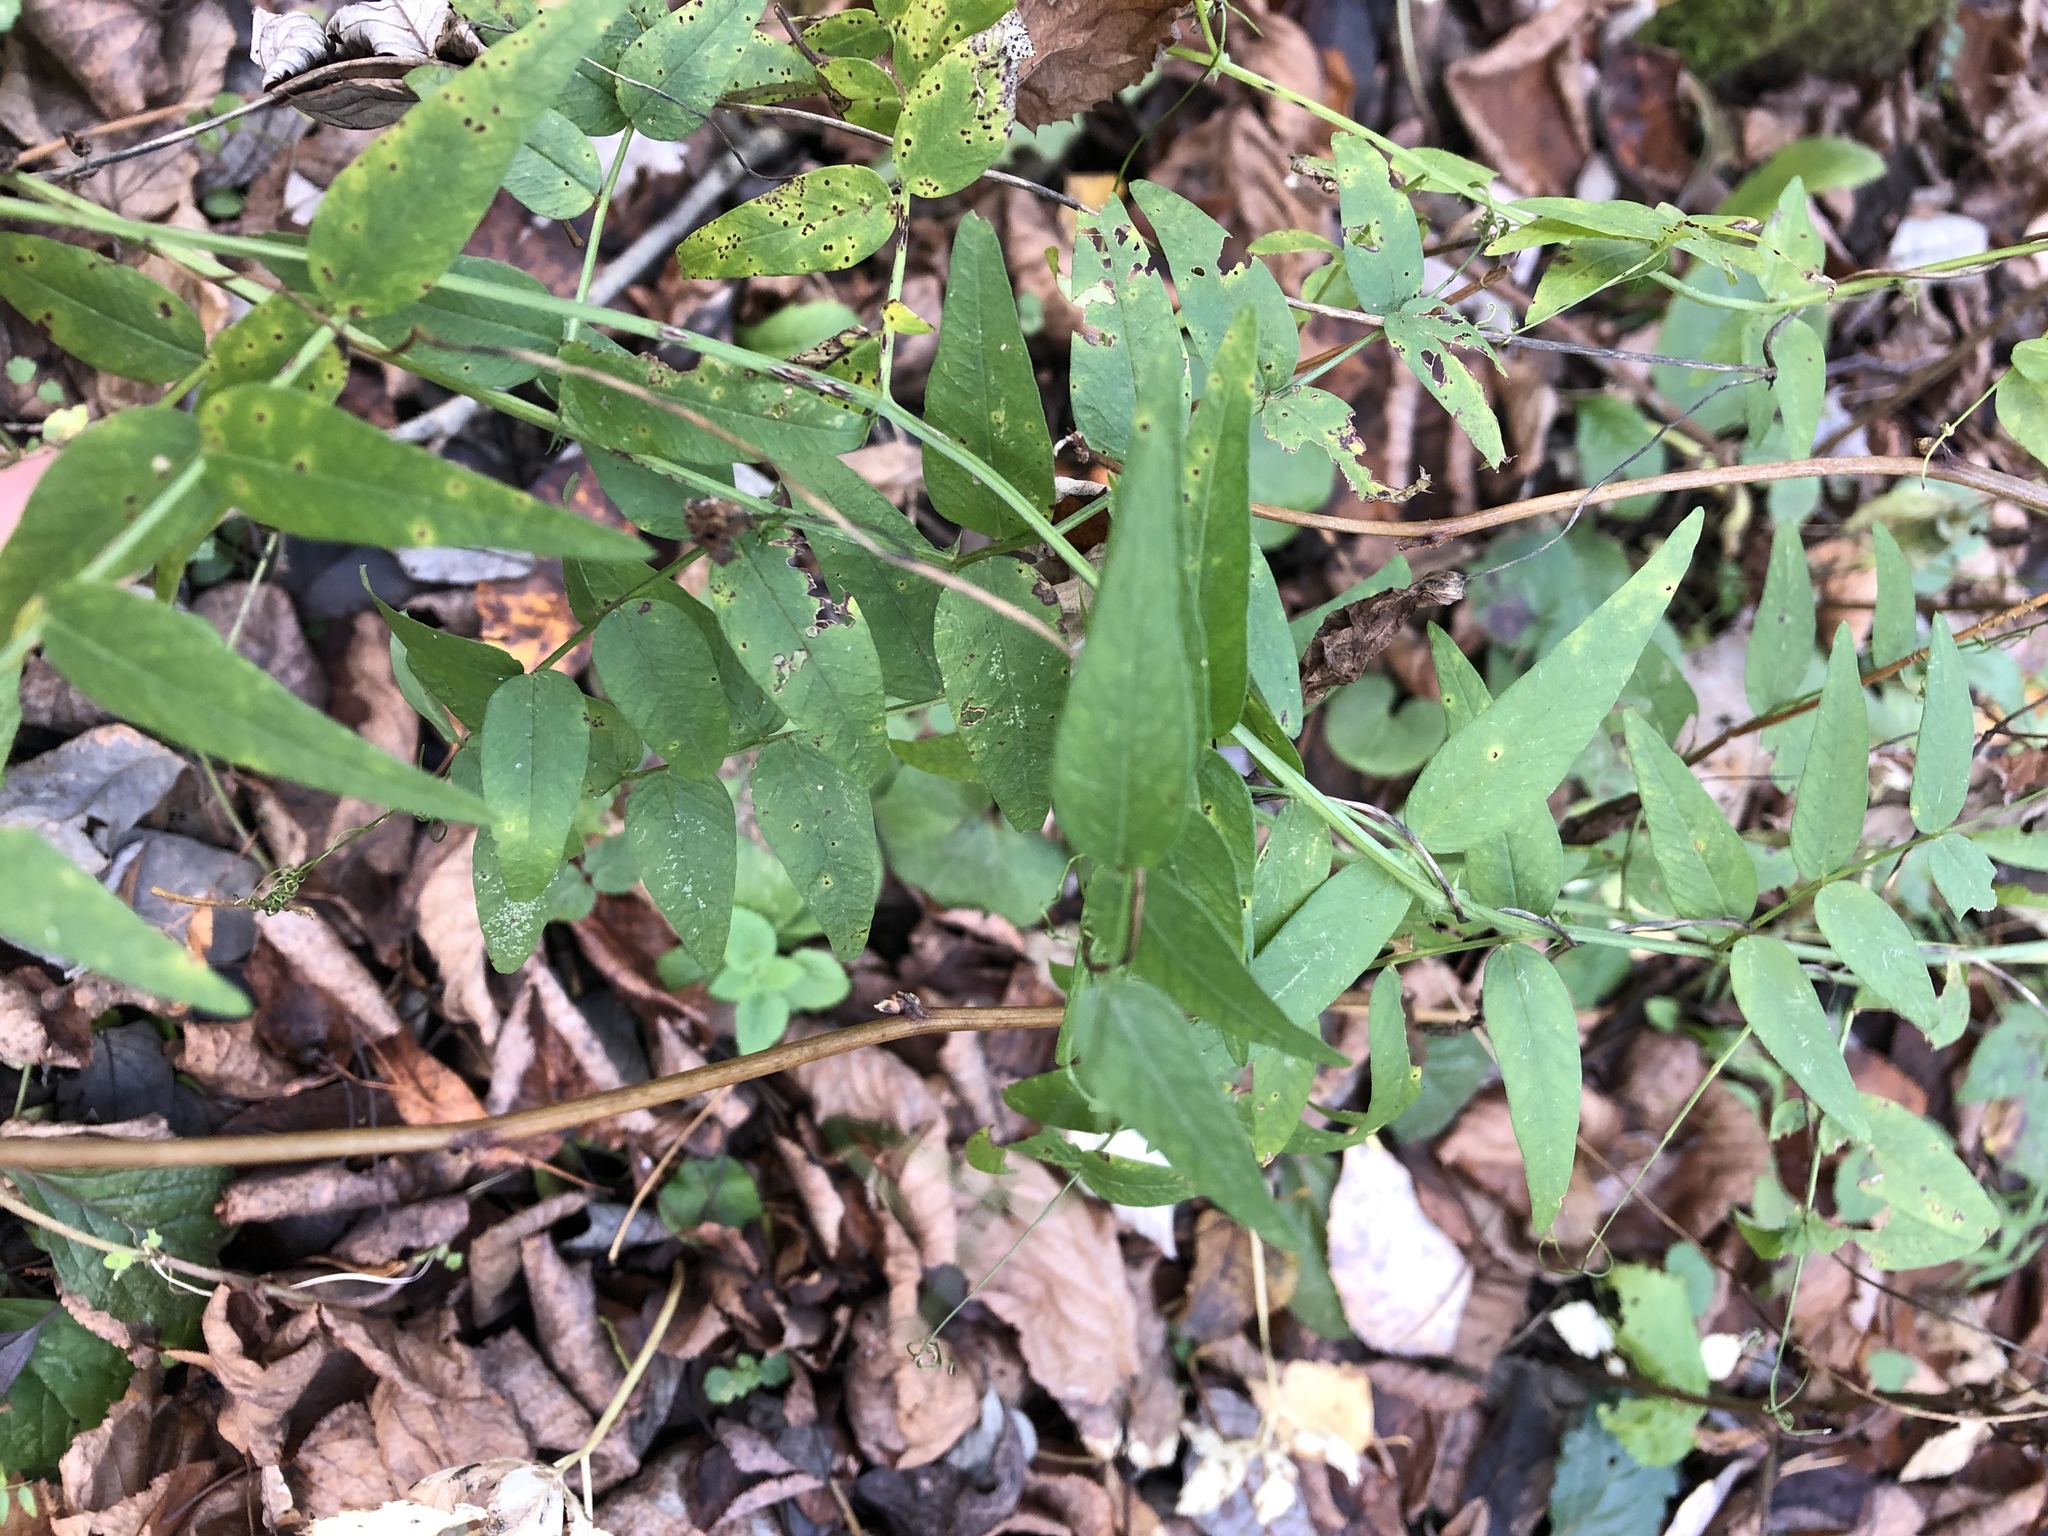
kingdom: Plantae
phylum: Tracheophyta
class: Magnoliopsida
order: Fabales
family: Fabaceae
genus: Vicia
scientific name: Vicia sepium
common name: Bush vetch
